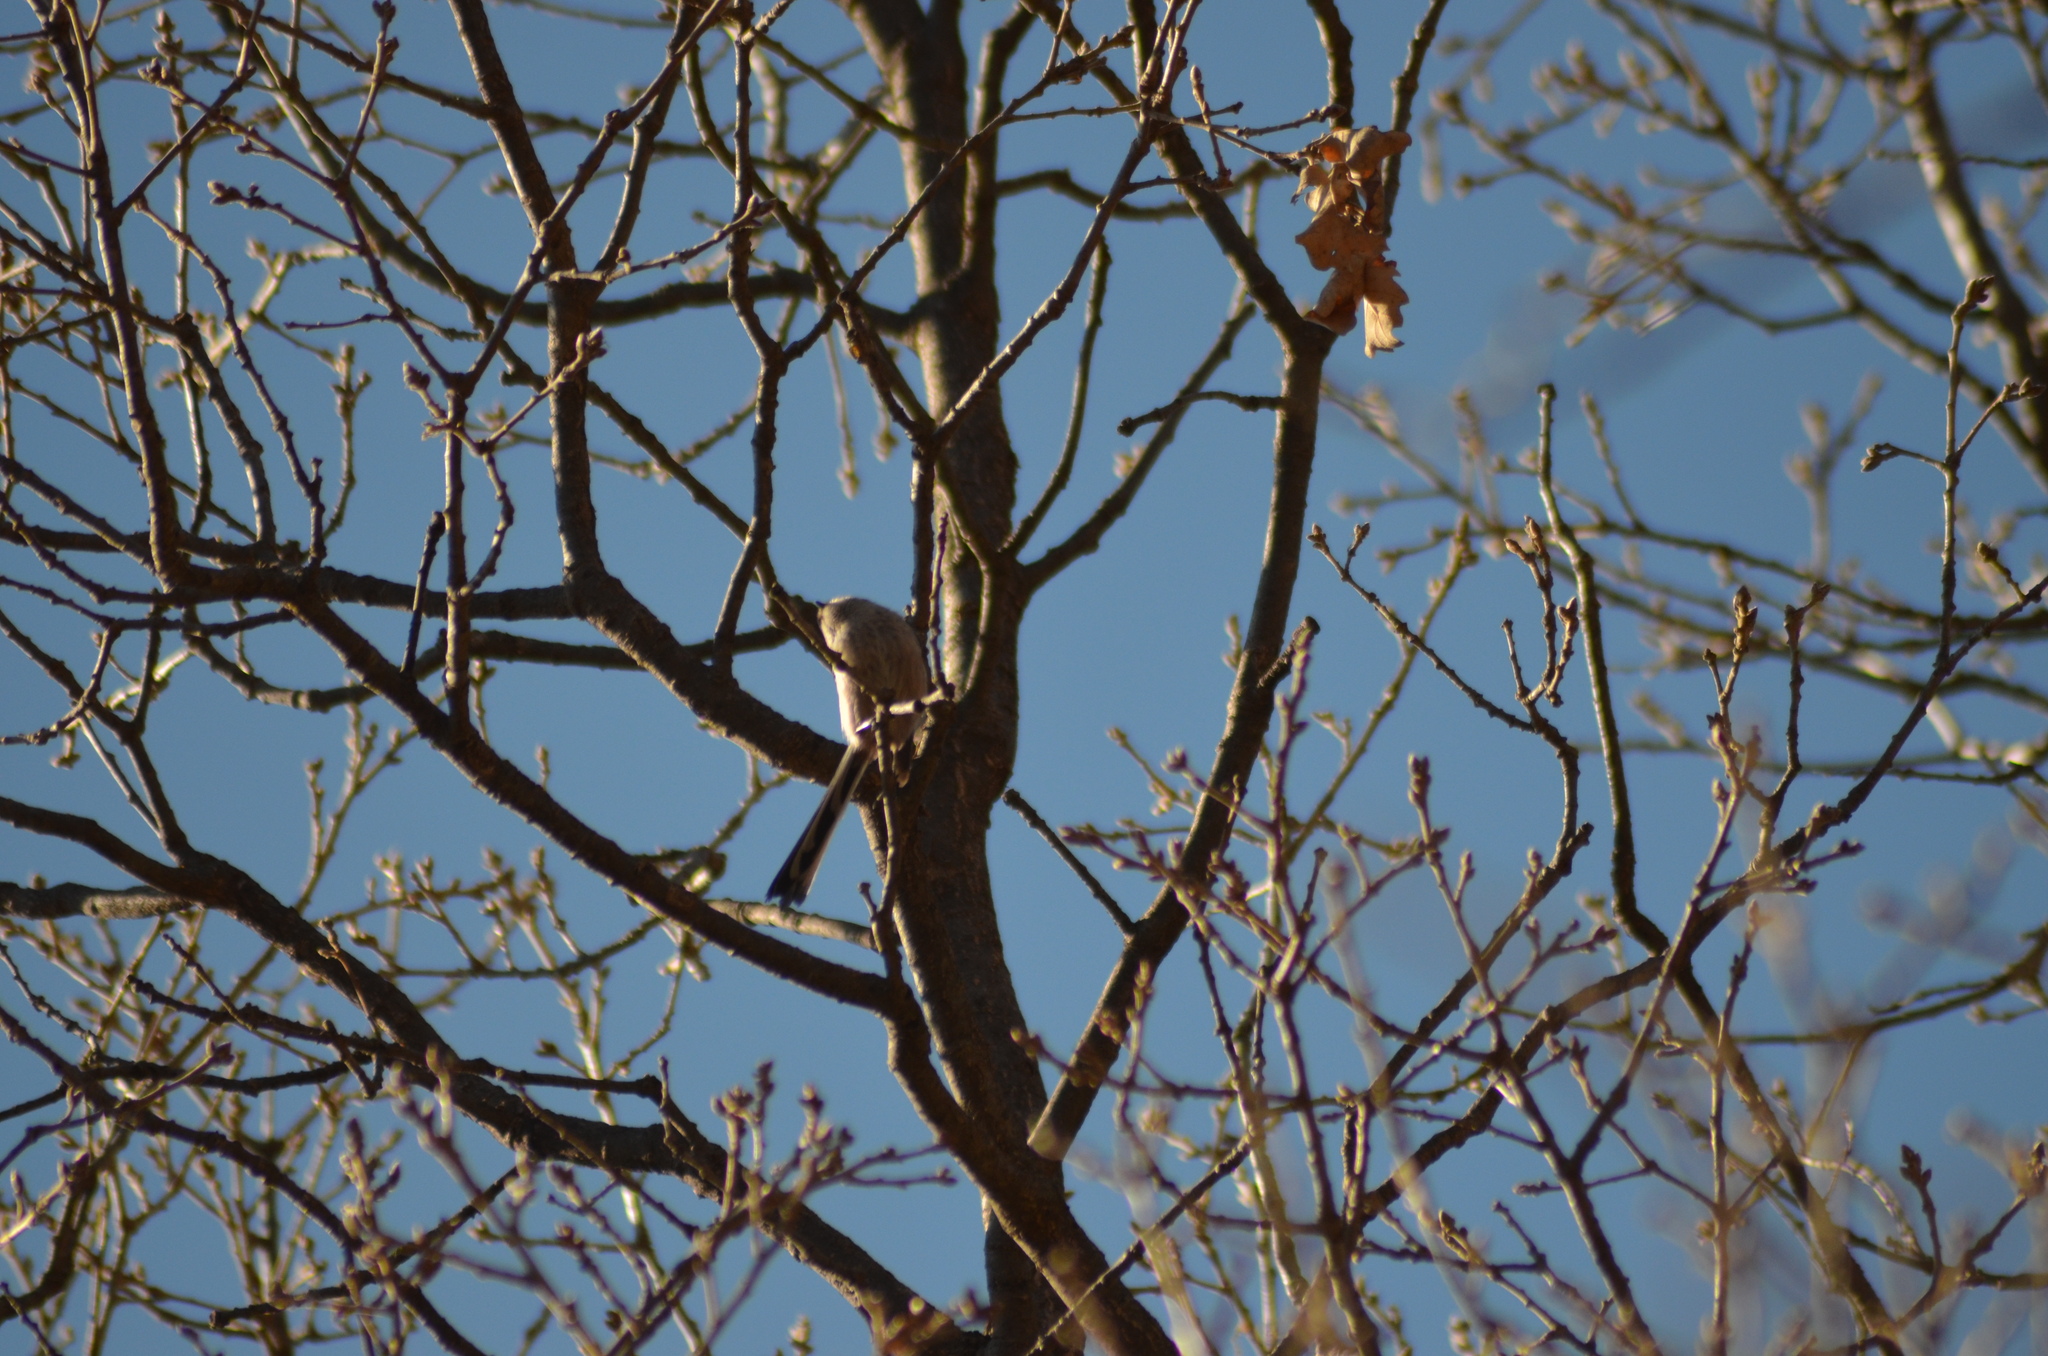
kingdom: Animalia
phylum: Chordata
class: Aves
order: Passeriformes
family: Aegithalidae
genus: Aegithalos
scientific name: Aegithalos caudatus
